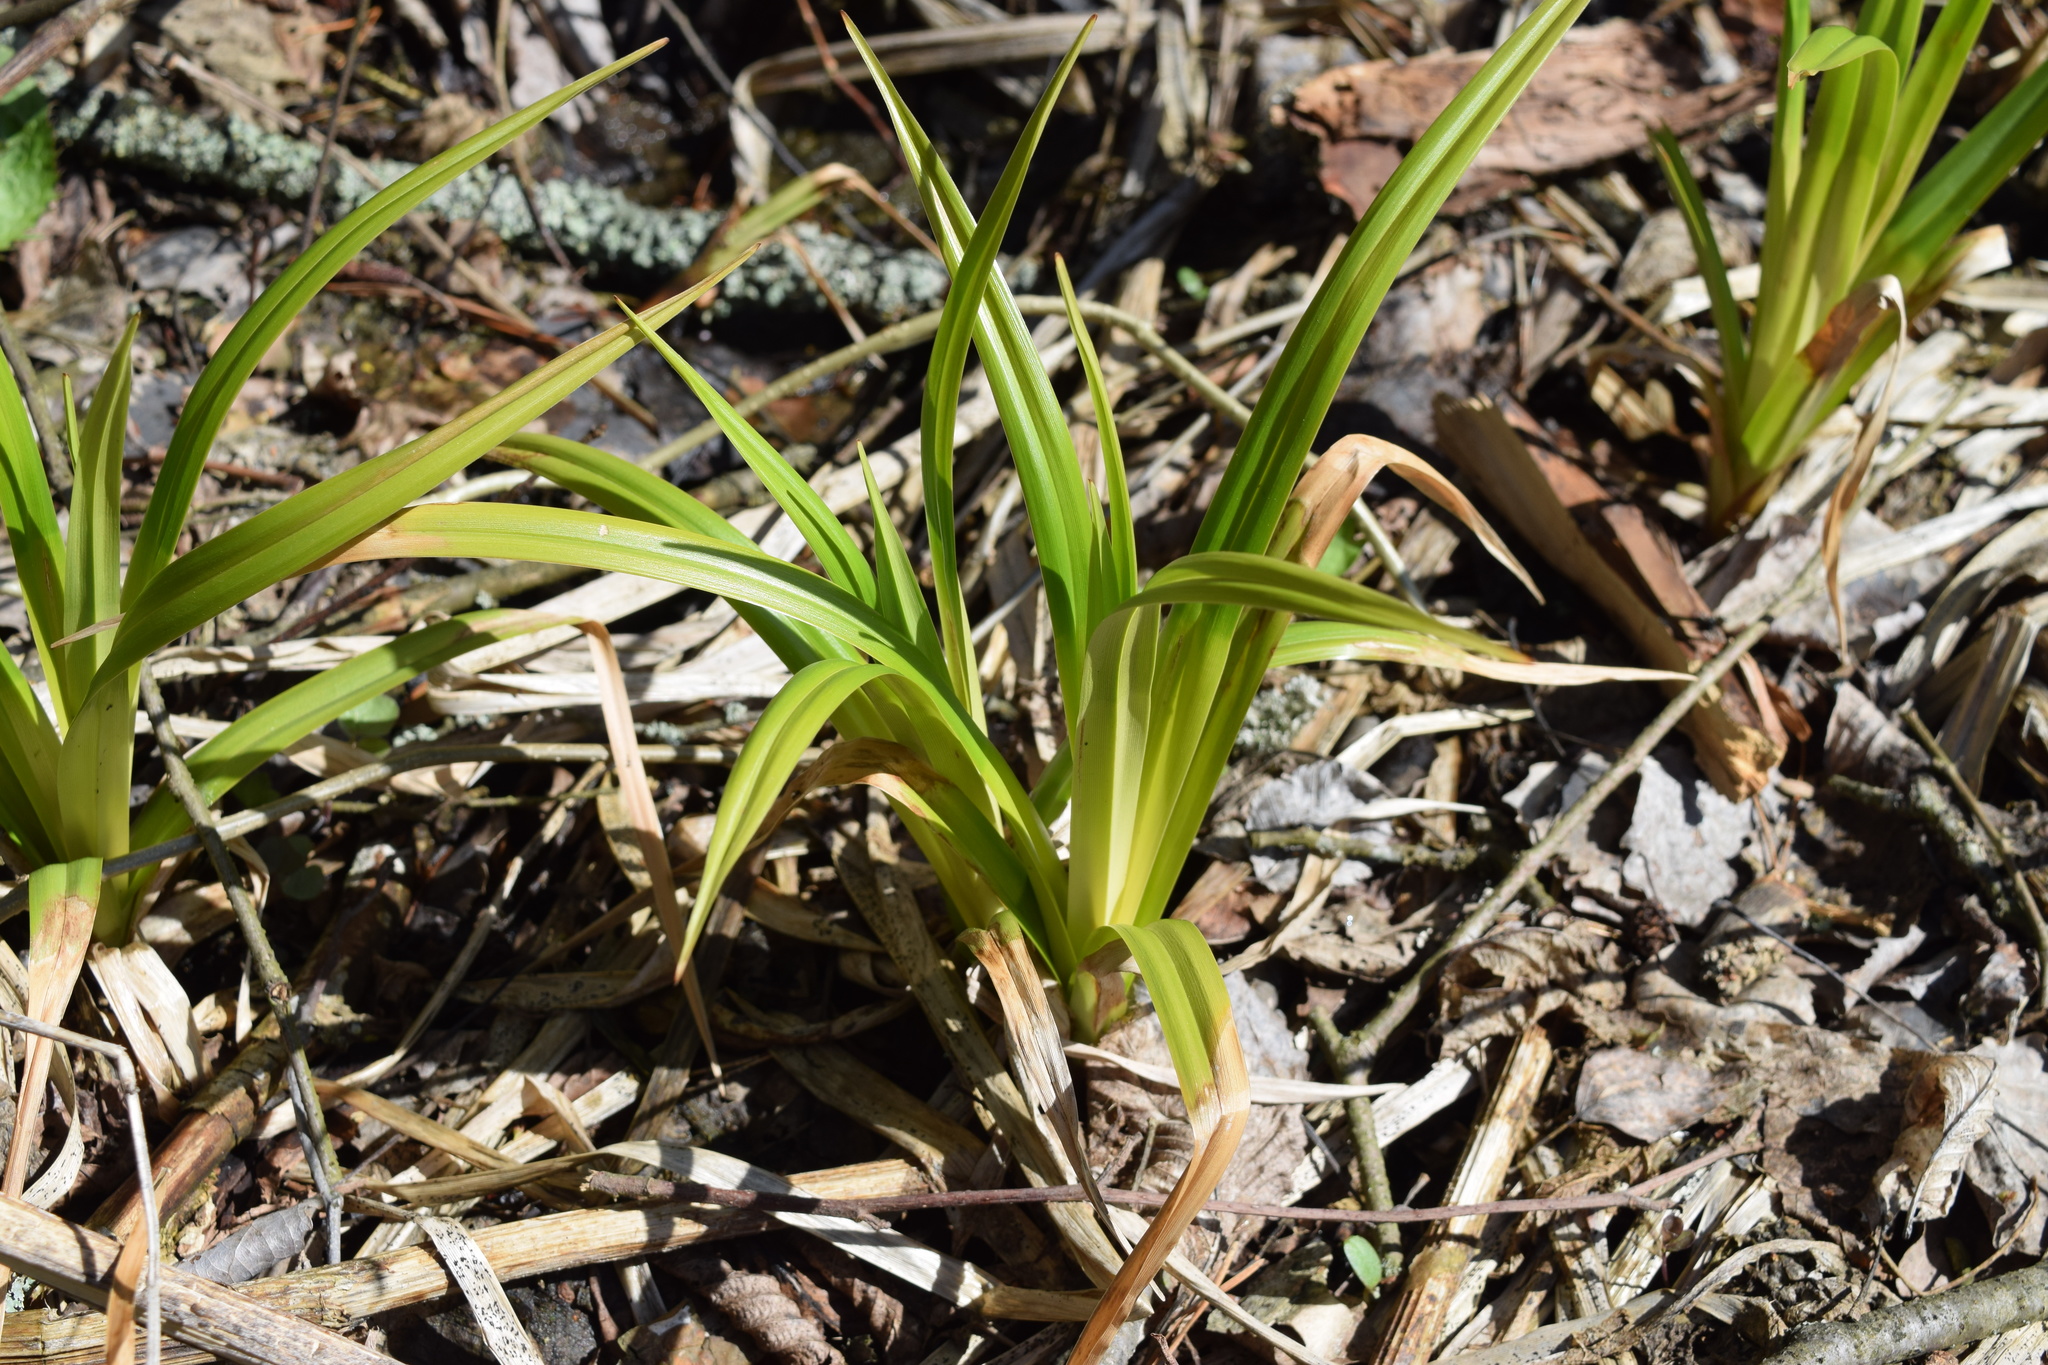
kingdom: Plantae
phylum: Tracheophyta
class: Liliopsida
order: Poales
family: Cyperaceae
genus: Scirpus
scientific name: Scirpus sylvaticus
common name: Wood club-rush
